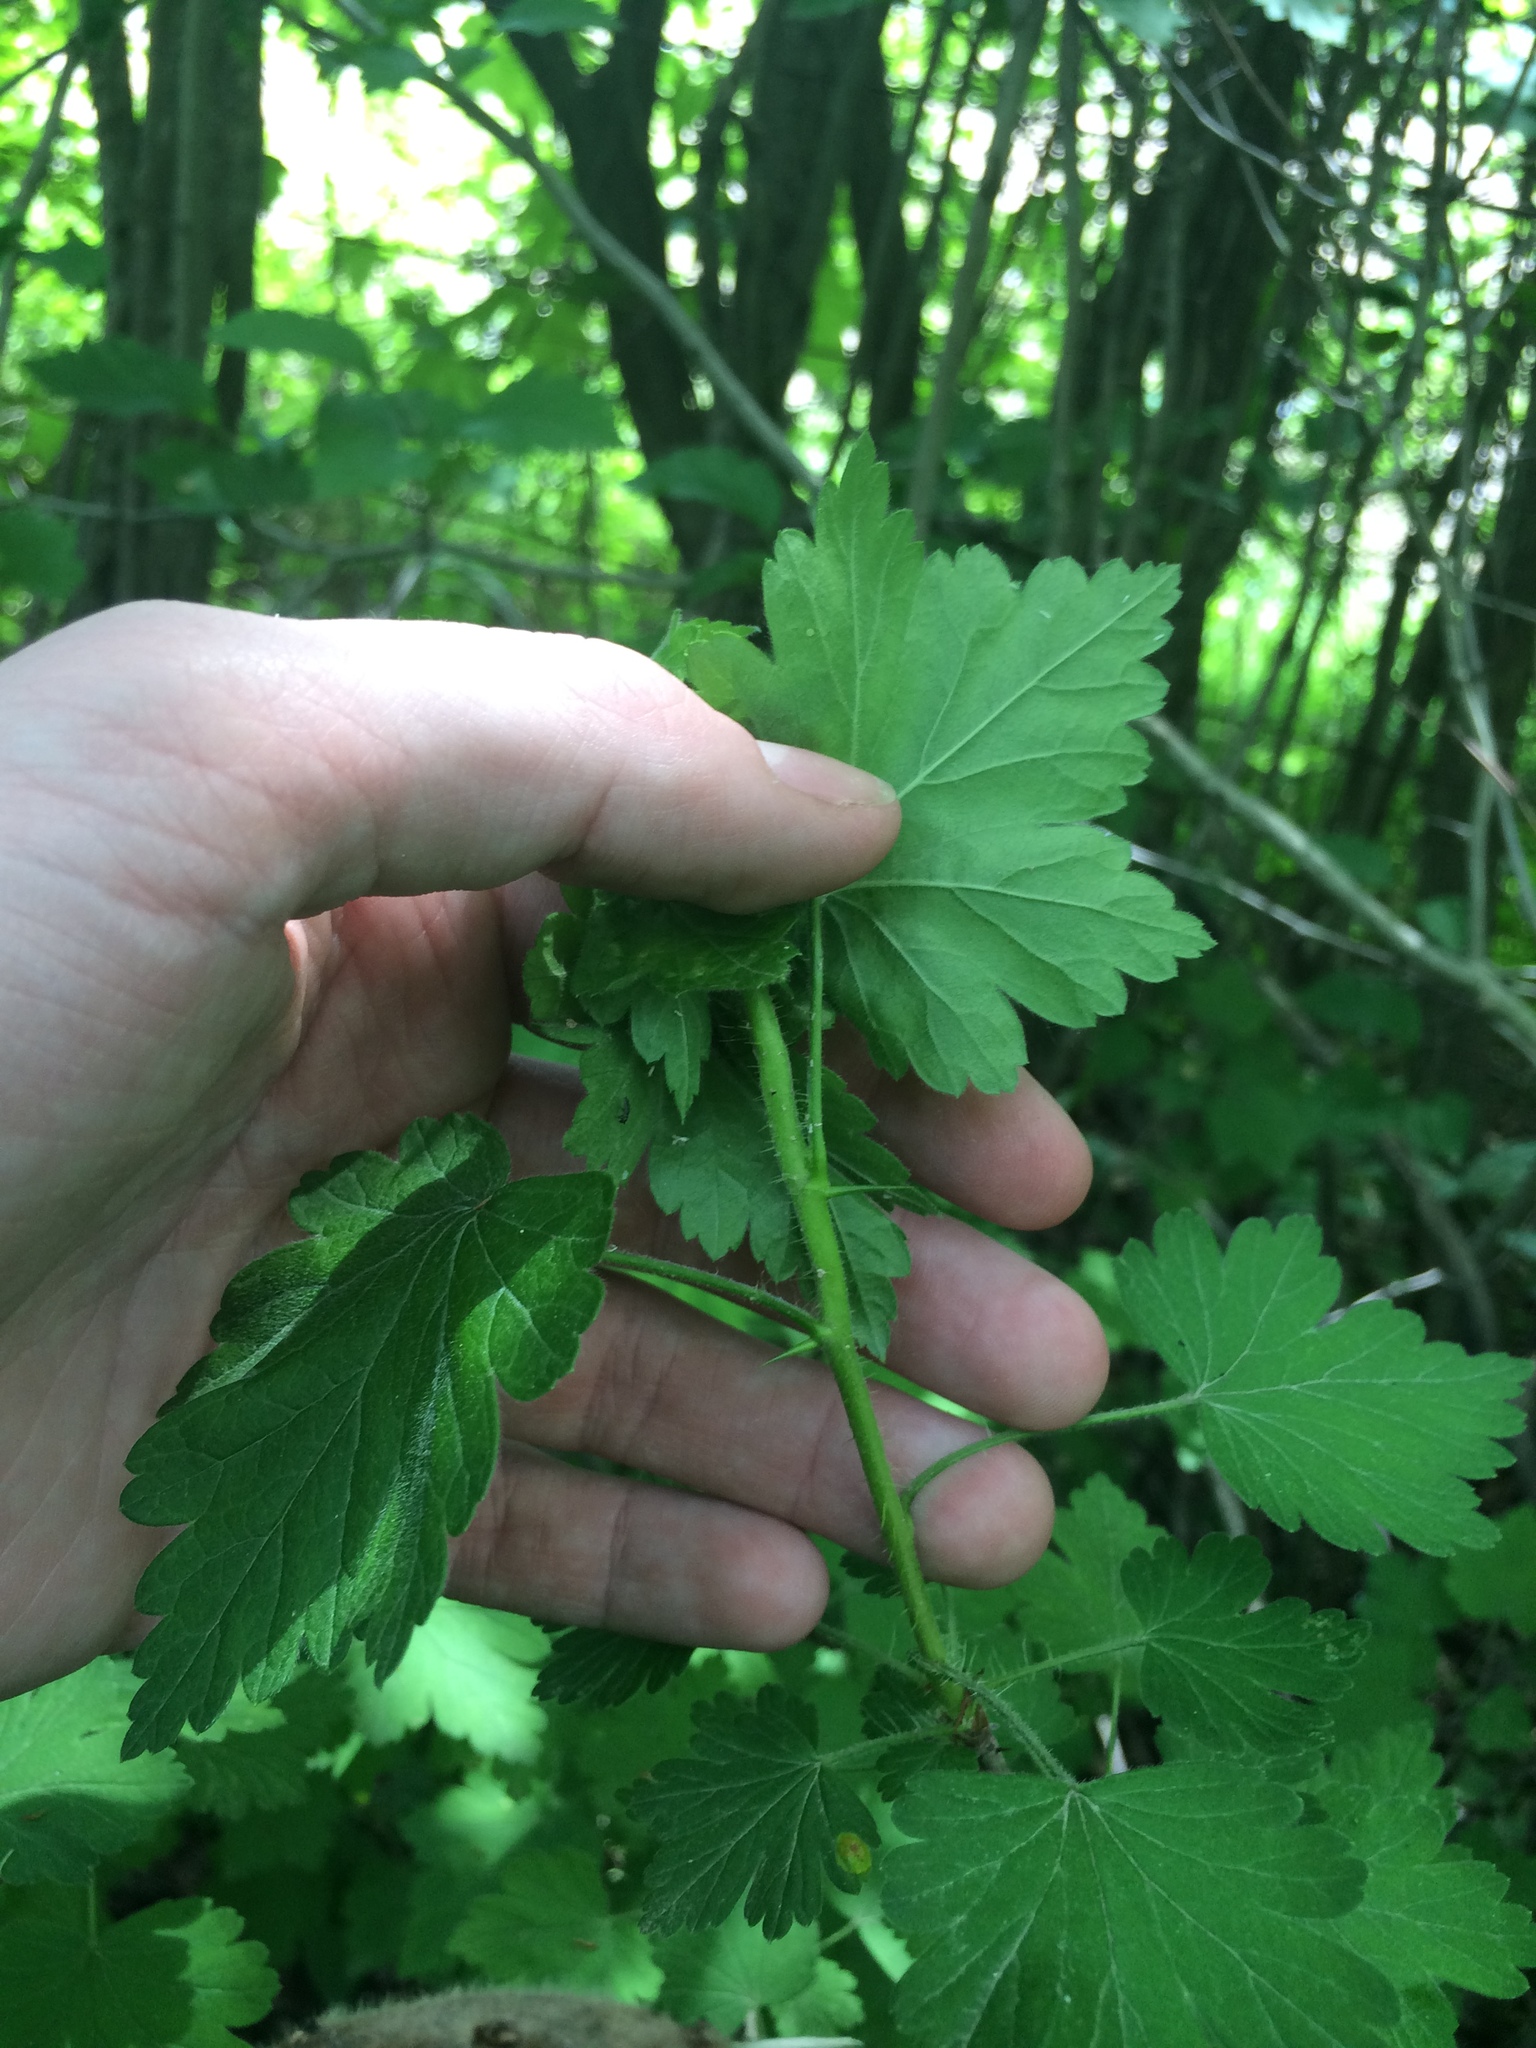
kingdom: Plantae
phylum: Tracheophyta
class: Magnoliopsida
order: Saxifragales
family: Grossulariaceae
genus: Ribes
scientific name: Ribes cynosbati
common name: American gooseberry
